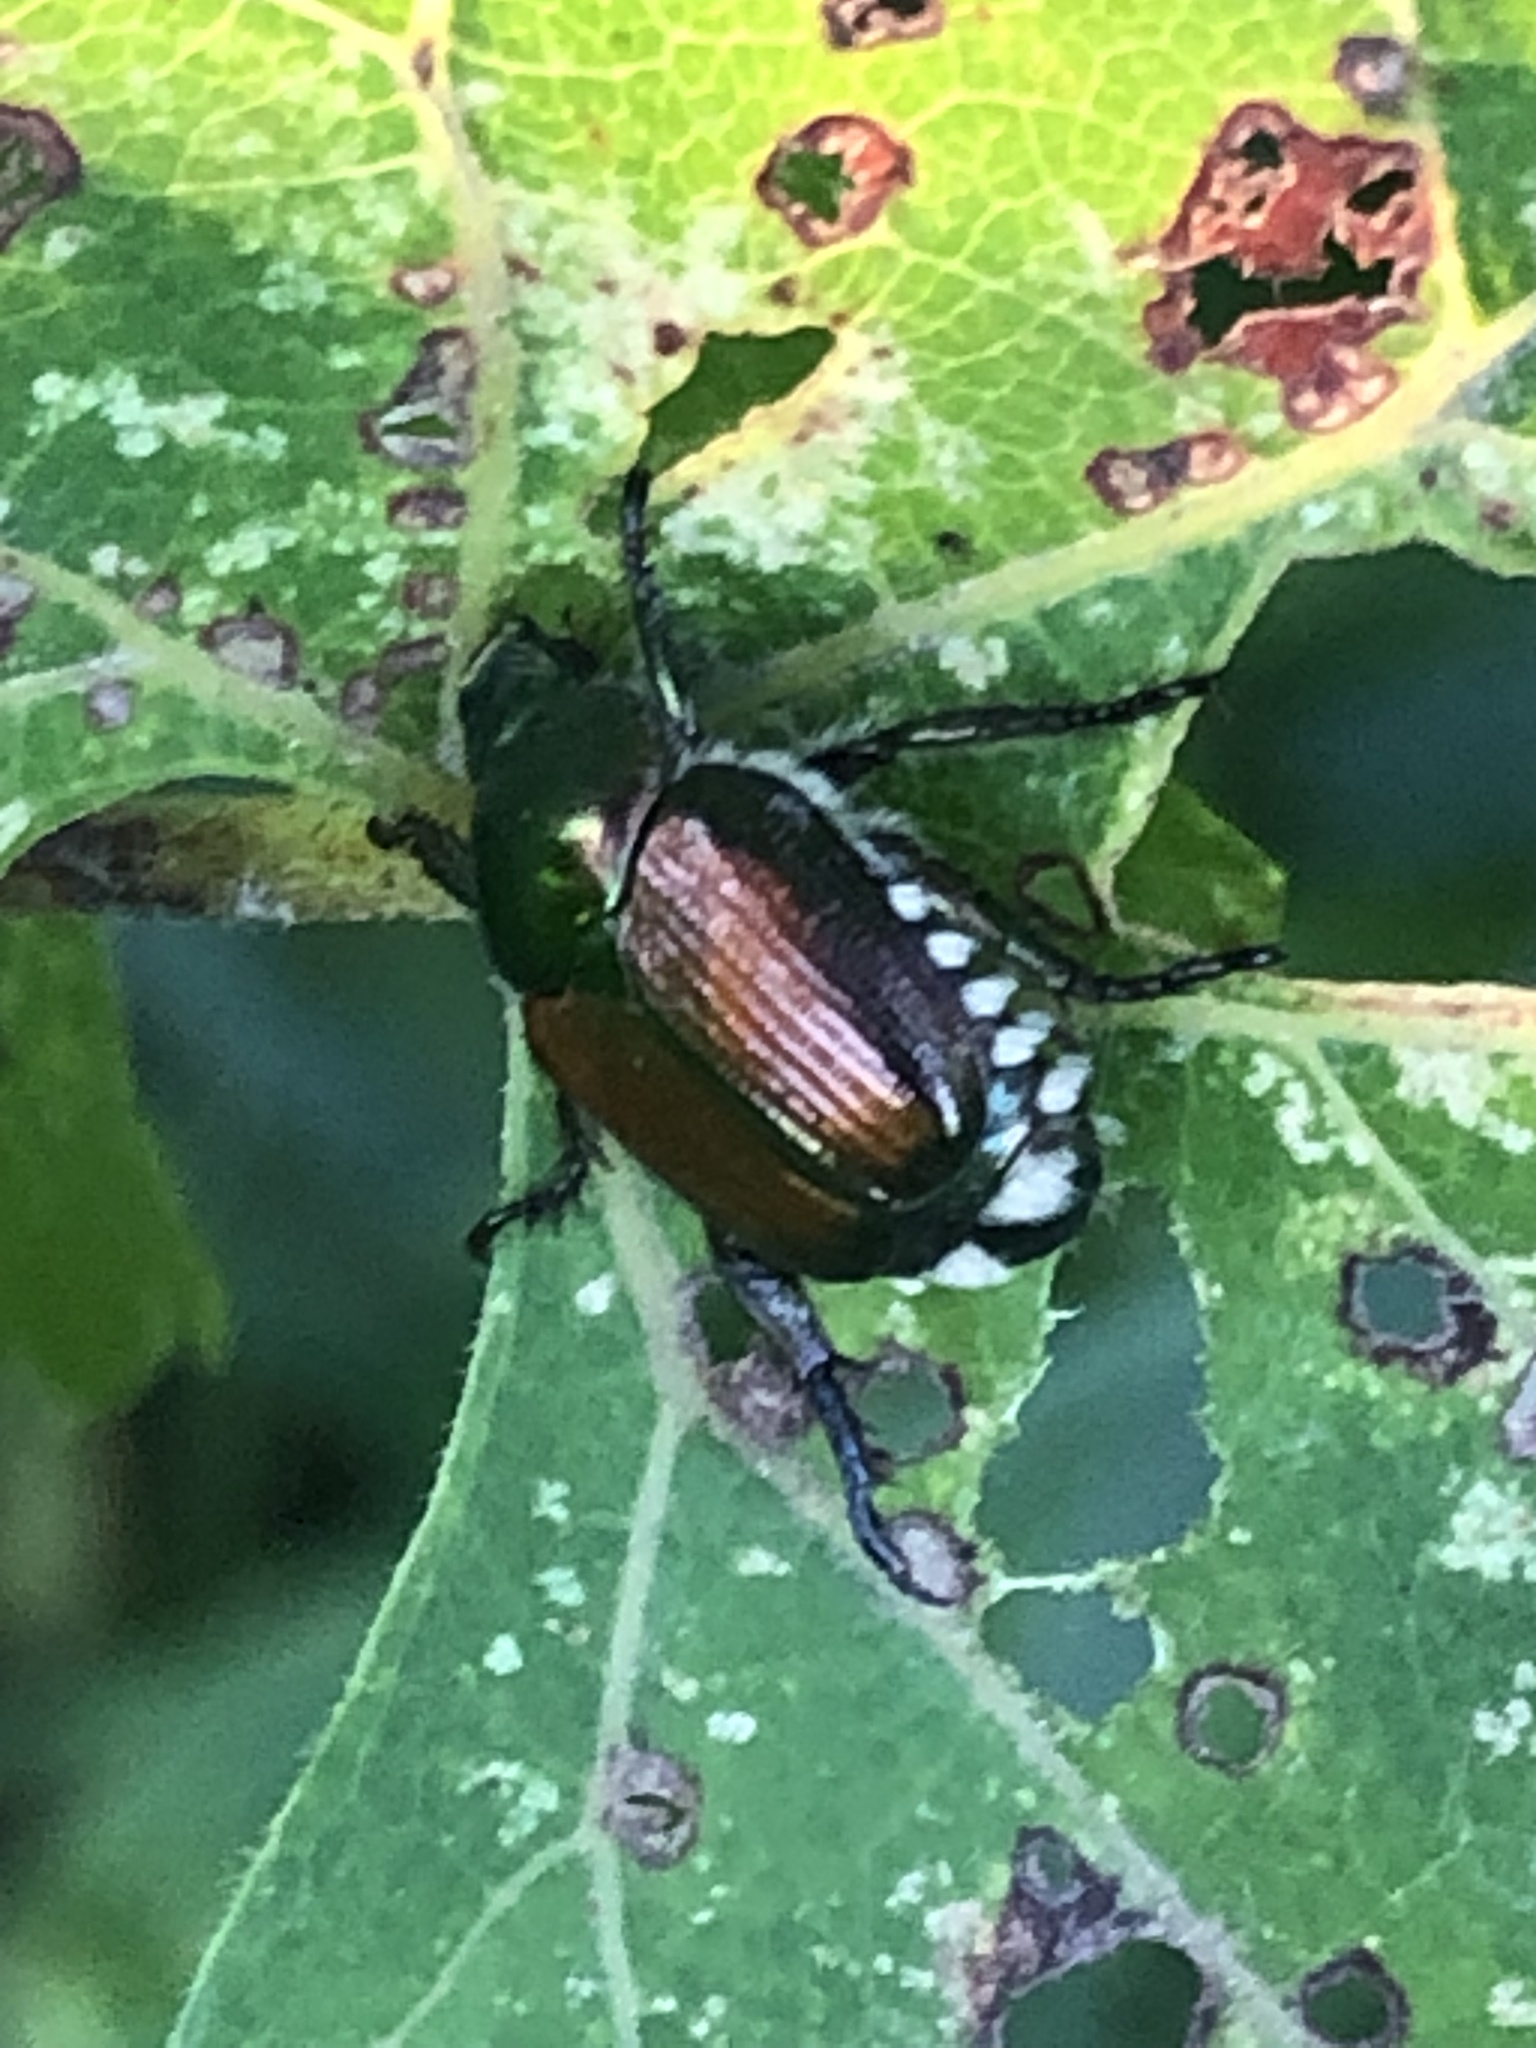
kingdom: Animalia
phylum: Arthropoda
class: Insecta
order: Coleoptera
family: Scarabaeidae
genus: Popillia
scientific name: Popillia japonica
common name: Japanese beetle
